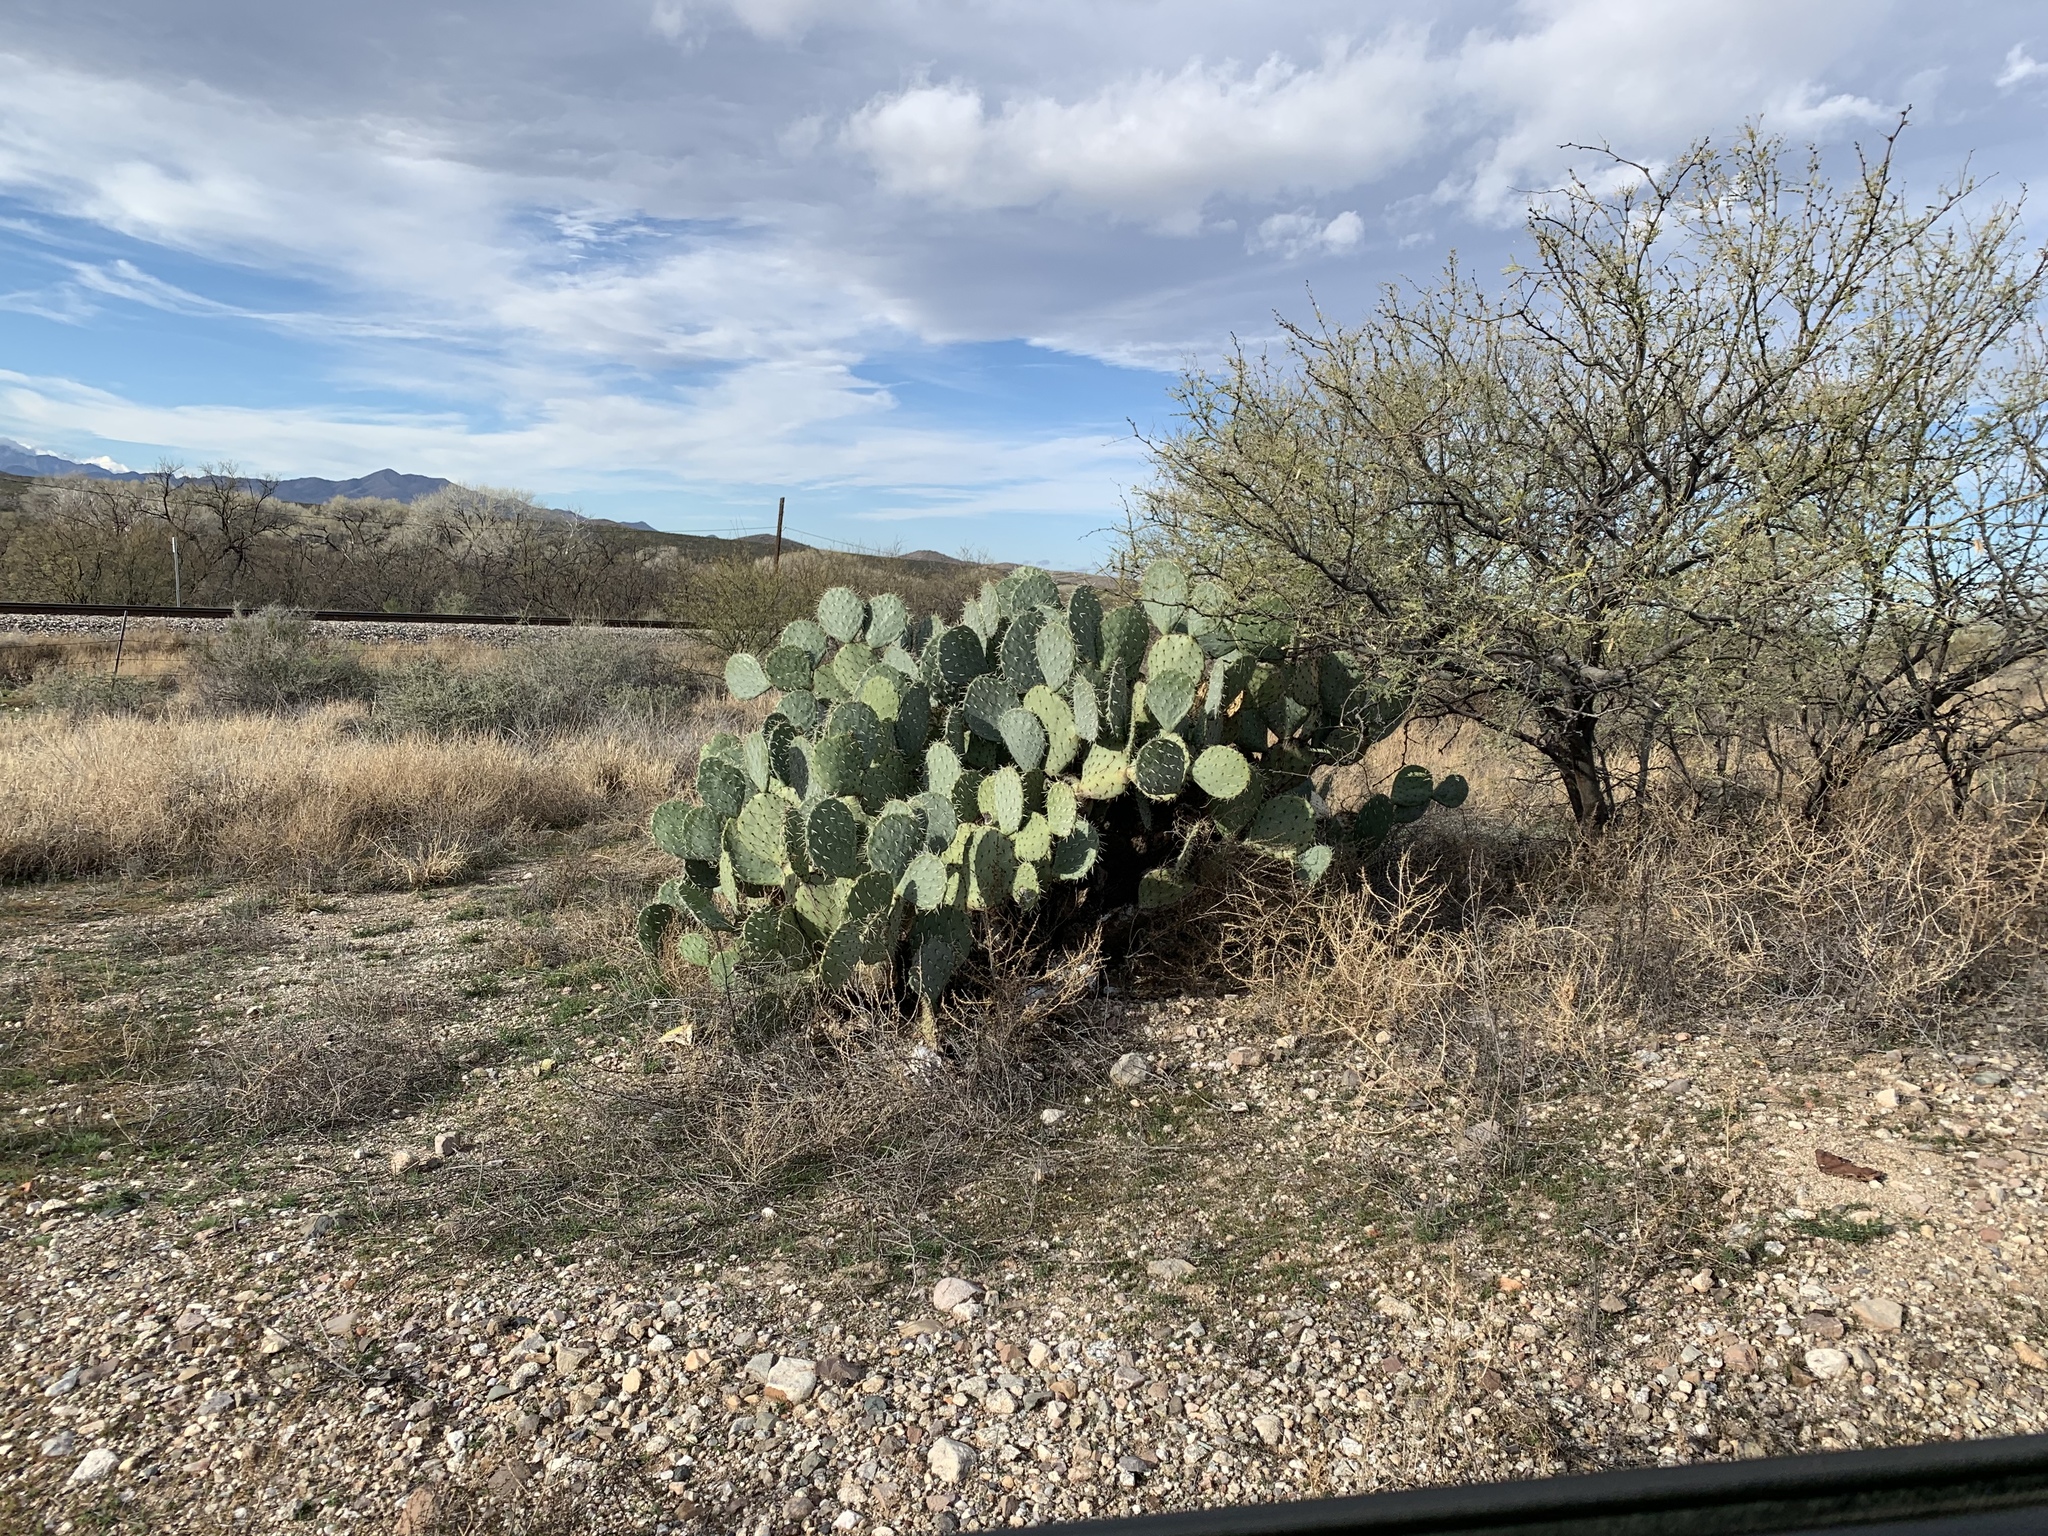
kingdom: Plantae
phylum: Tracheophyta
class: Magnoliopsida
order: Caryophyllales
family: Cactaceae
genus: Opuntia
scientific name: Opuntia engelmannii
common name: Cactus-apple
